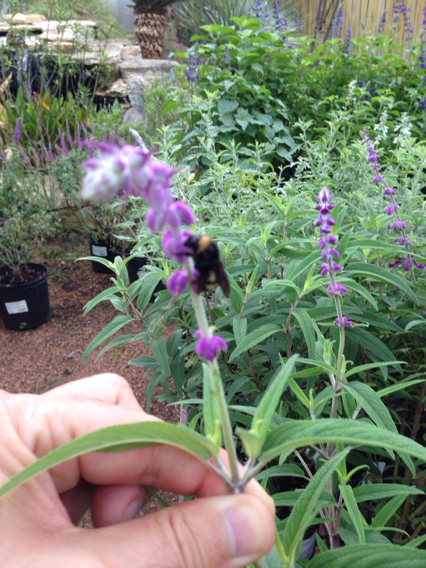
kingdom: Animalia
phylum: Arthropoda
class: Insecta
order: Hymenoptera
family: Apidae
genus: Bombus
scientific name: Bombus pensylvanicus
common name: Bumble bee
